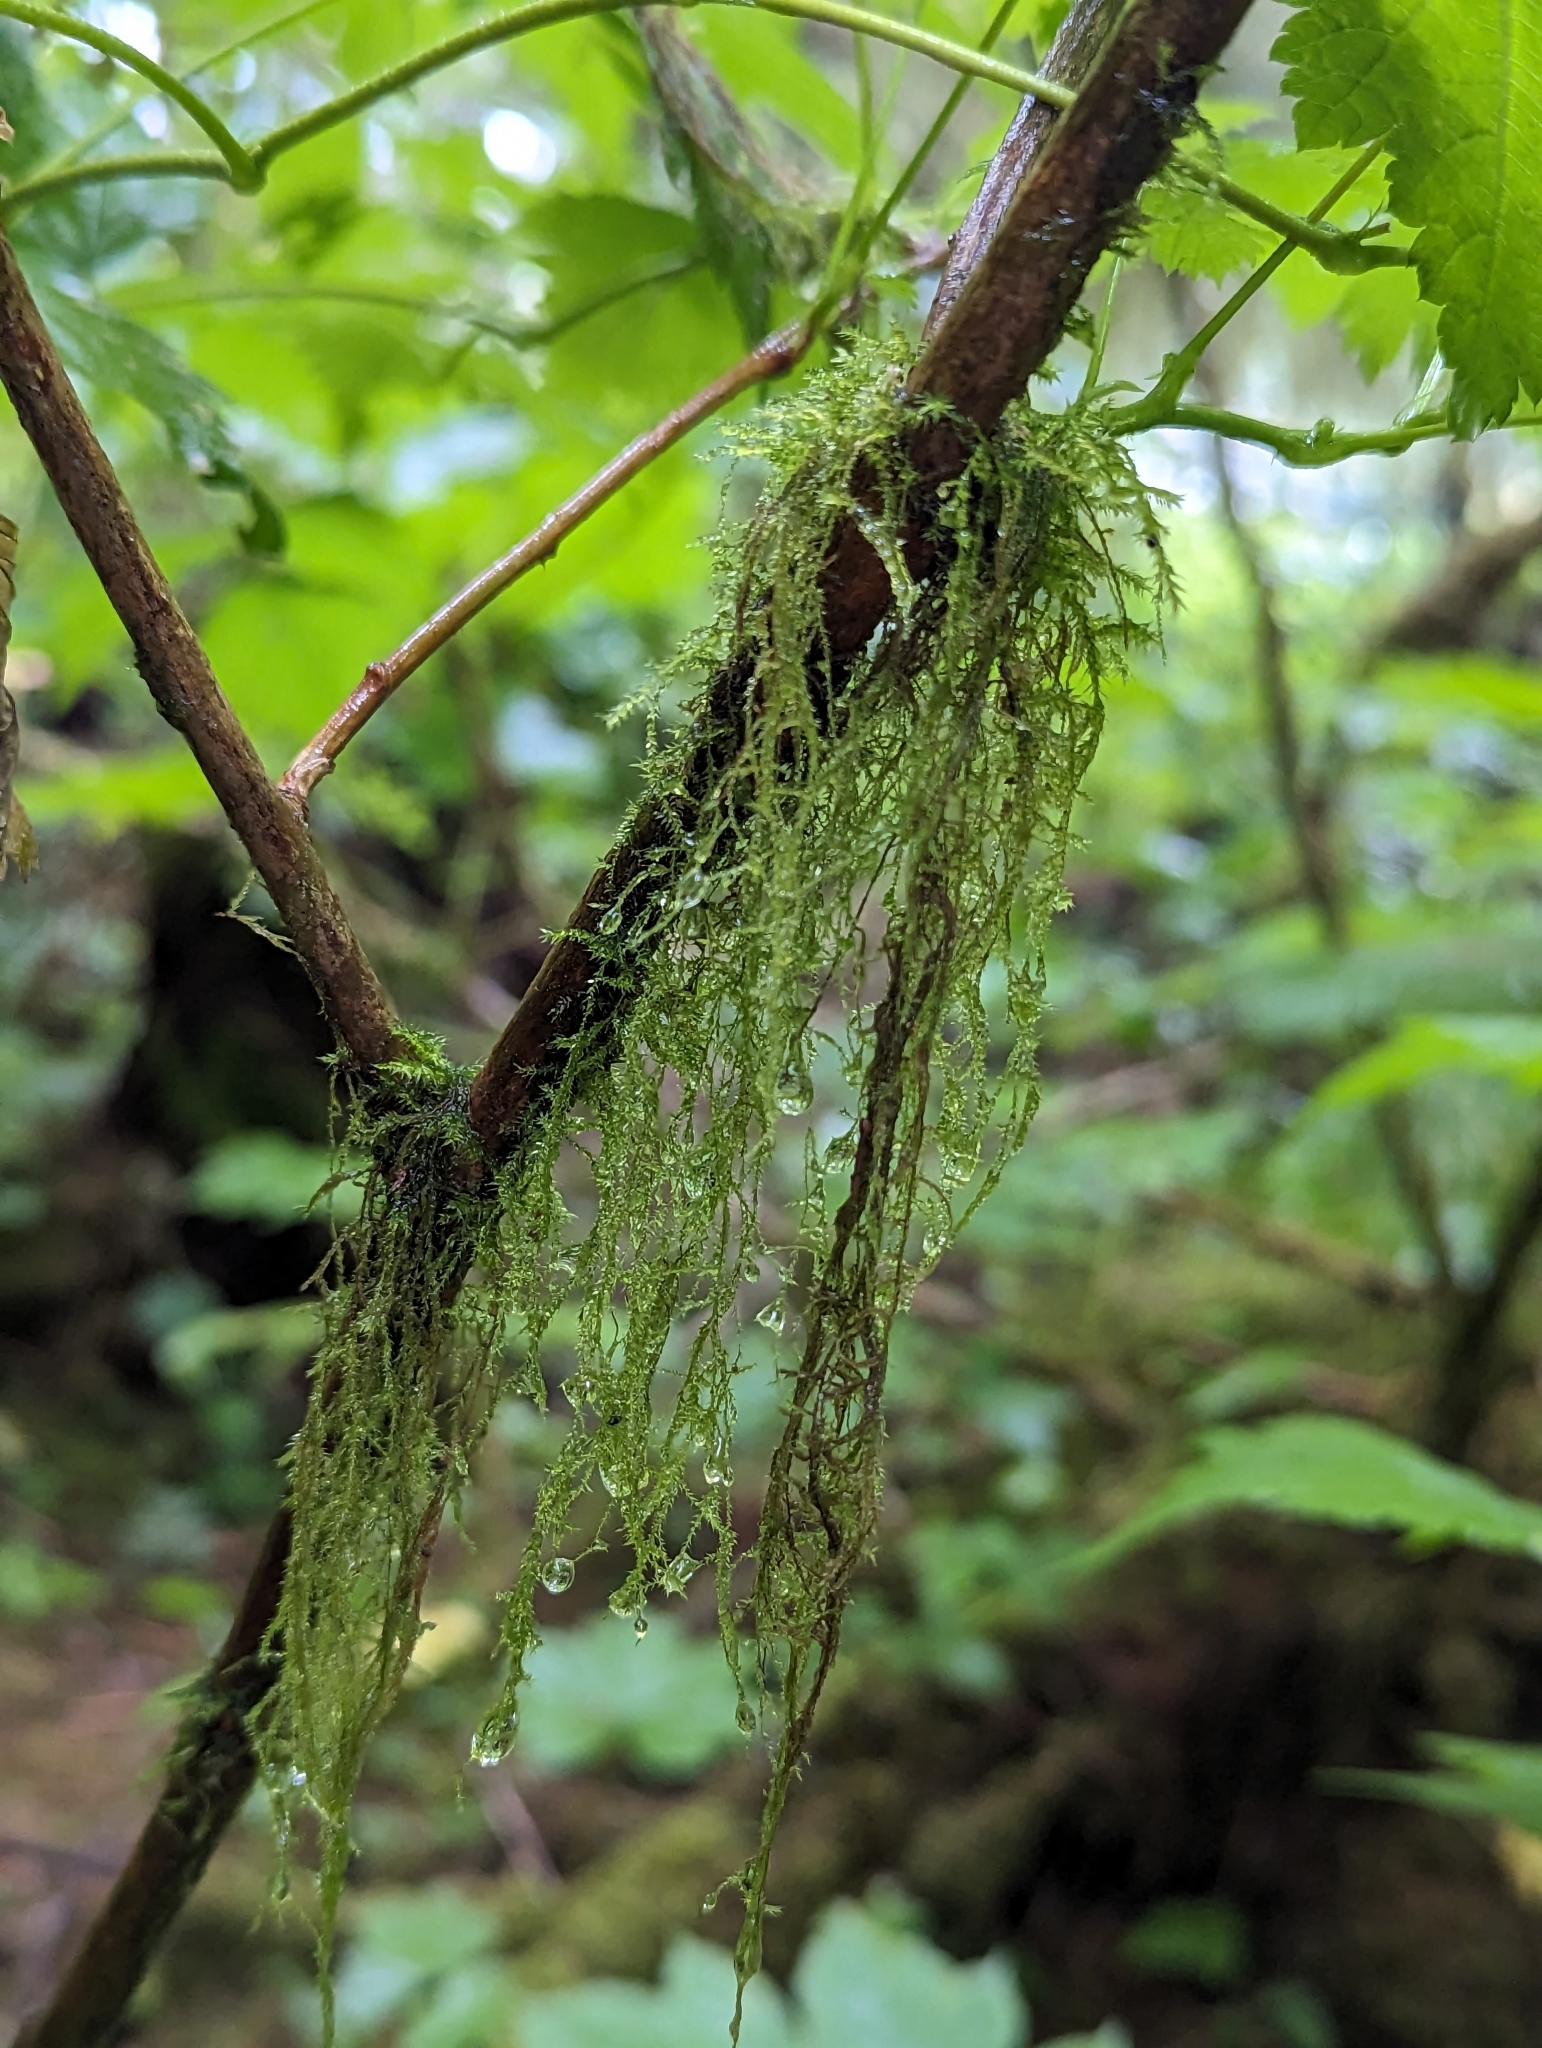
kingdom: Plantae
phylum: Bryophyta
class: Bryopsida
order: Hypnales
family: Lembophyllaceae
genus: Pseudisothecium
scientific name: Pseudisothecium stoloniferum
